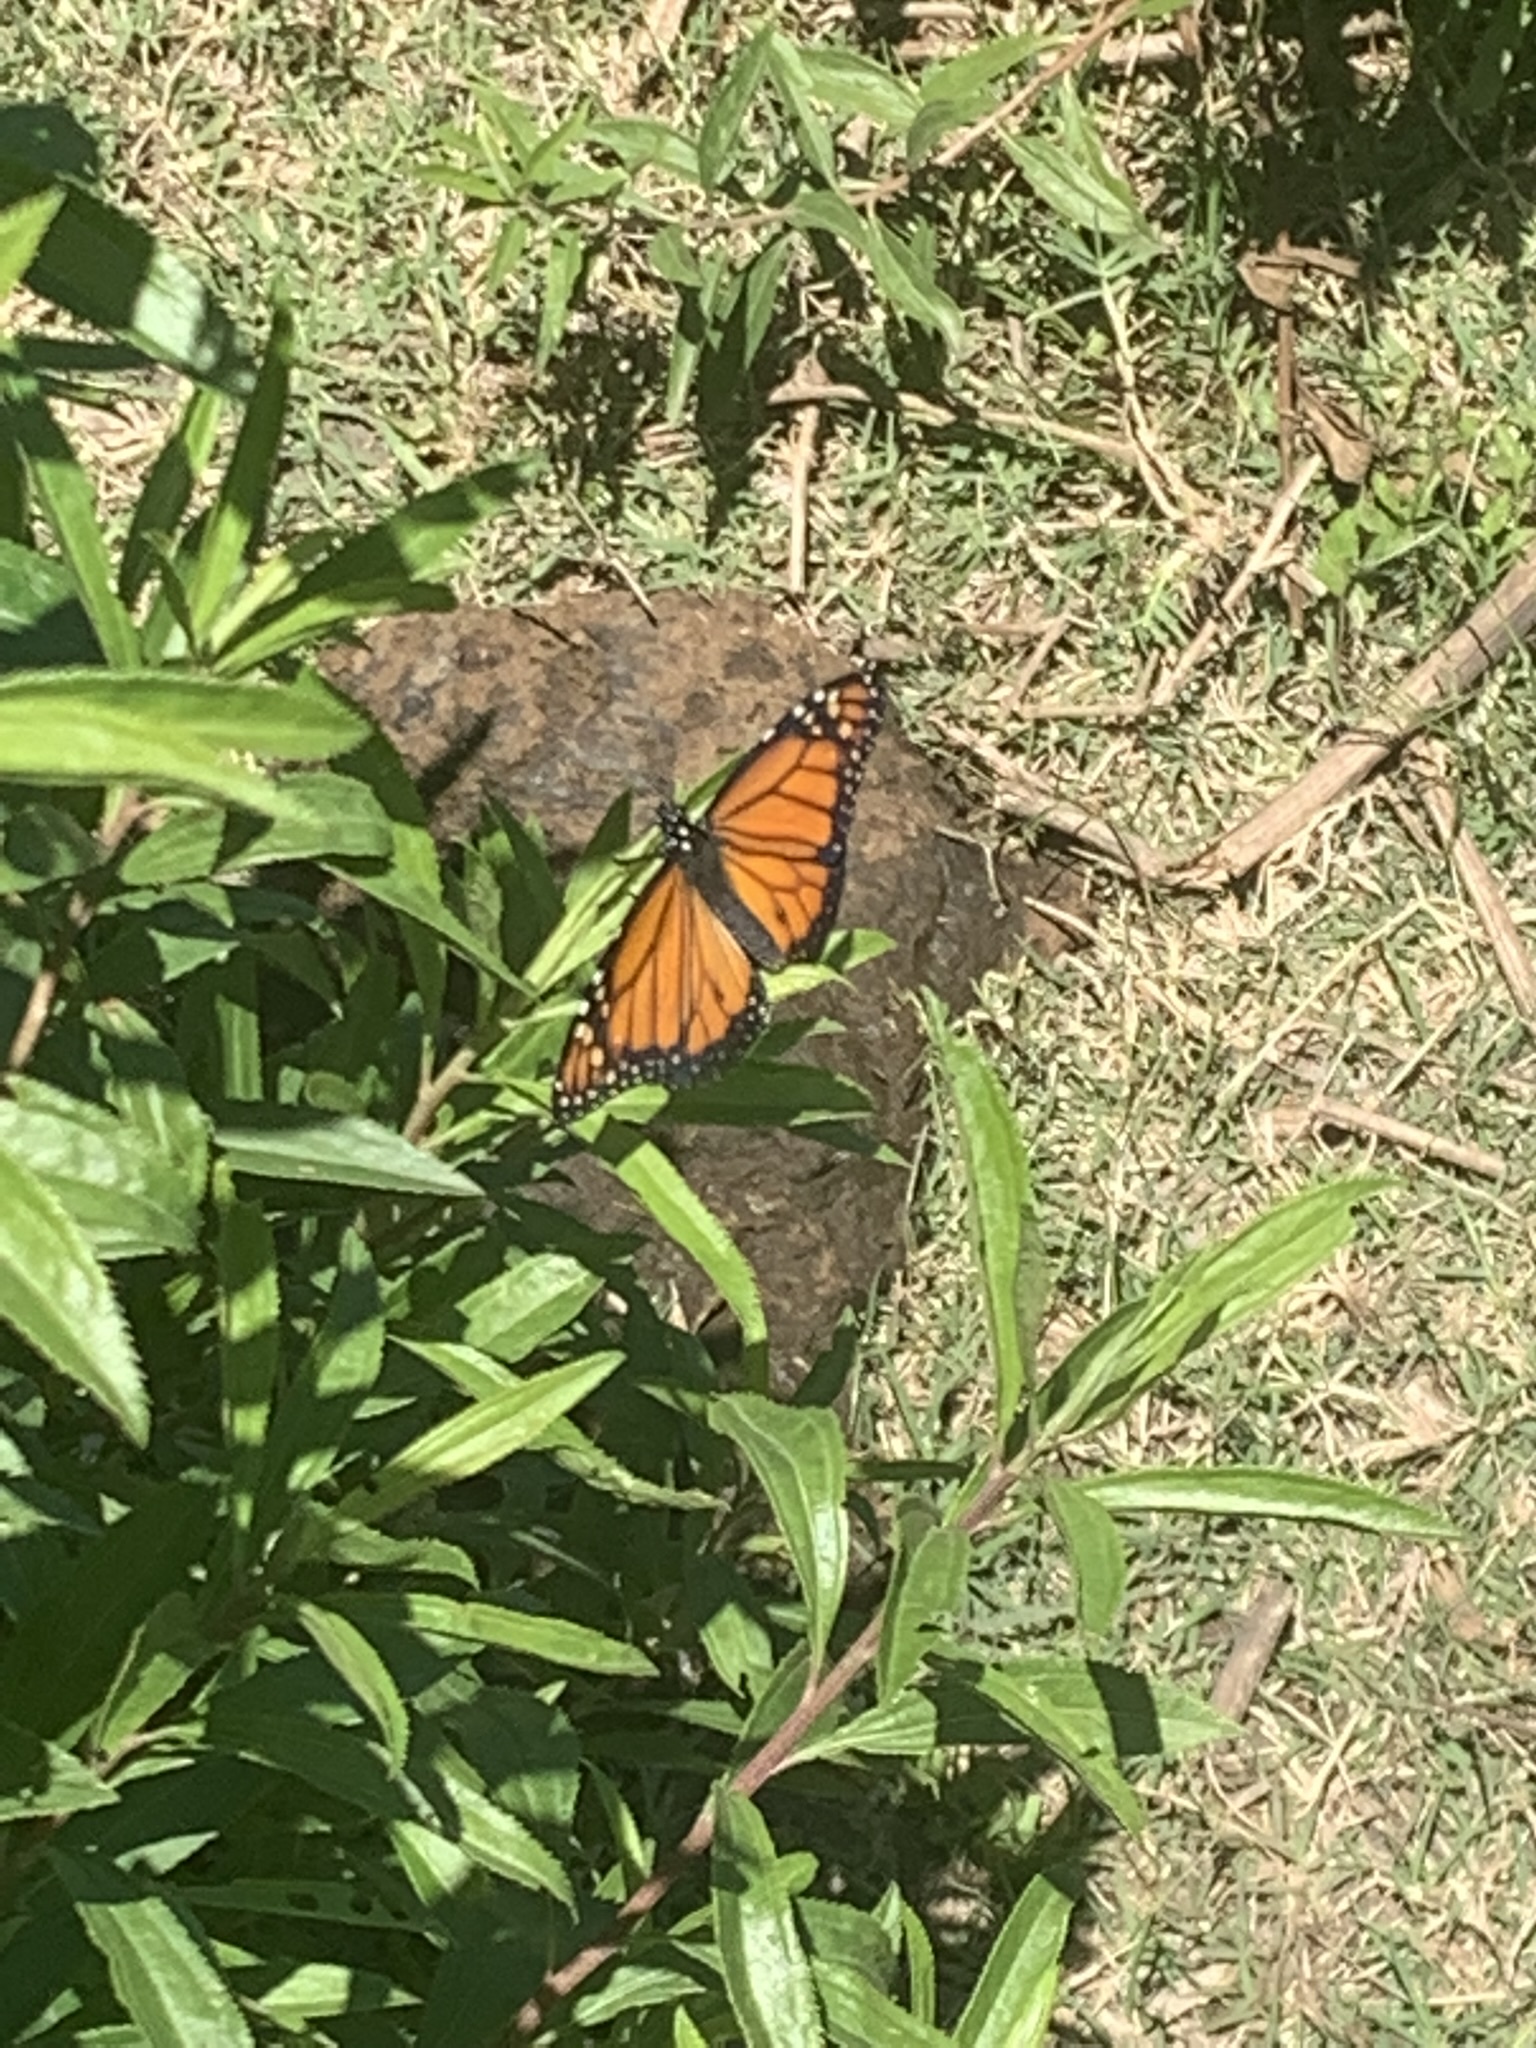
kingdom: Animalia
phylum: Arthropoda
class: Insecta
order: Lepidoptera
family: Nymphalidae
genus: Danaus
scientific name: Danaus erippus
